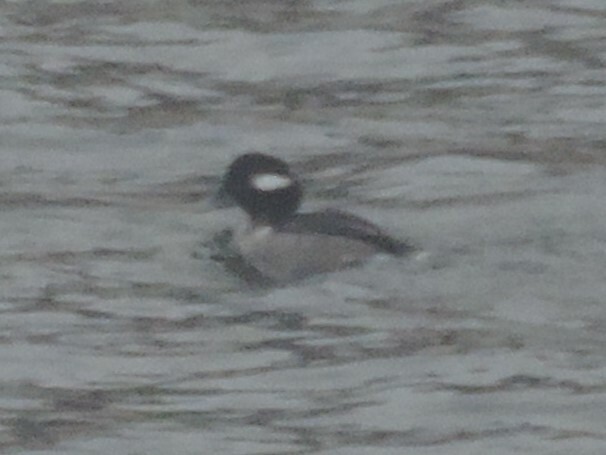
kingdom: Animalia
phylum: Chordata
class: Aves
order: Anseriformes
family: Anatidae
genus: Bucephala
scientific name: Bucephala albeola
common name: Bufflehead
